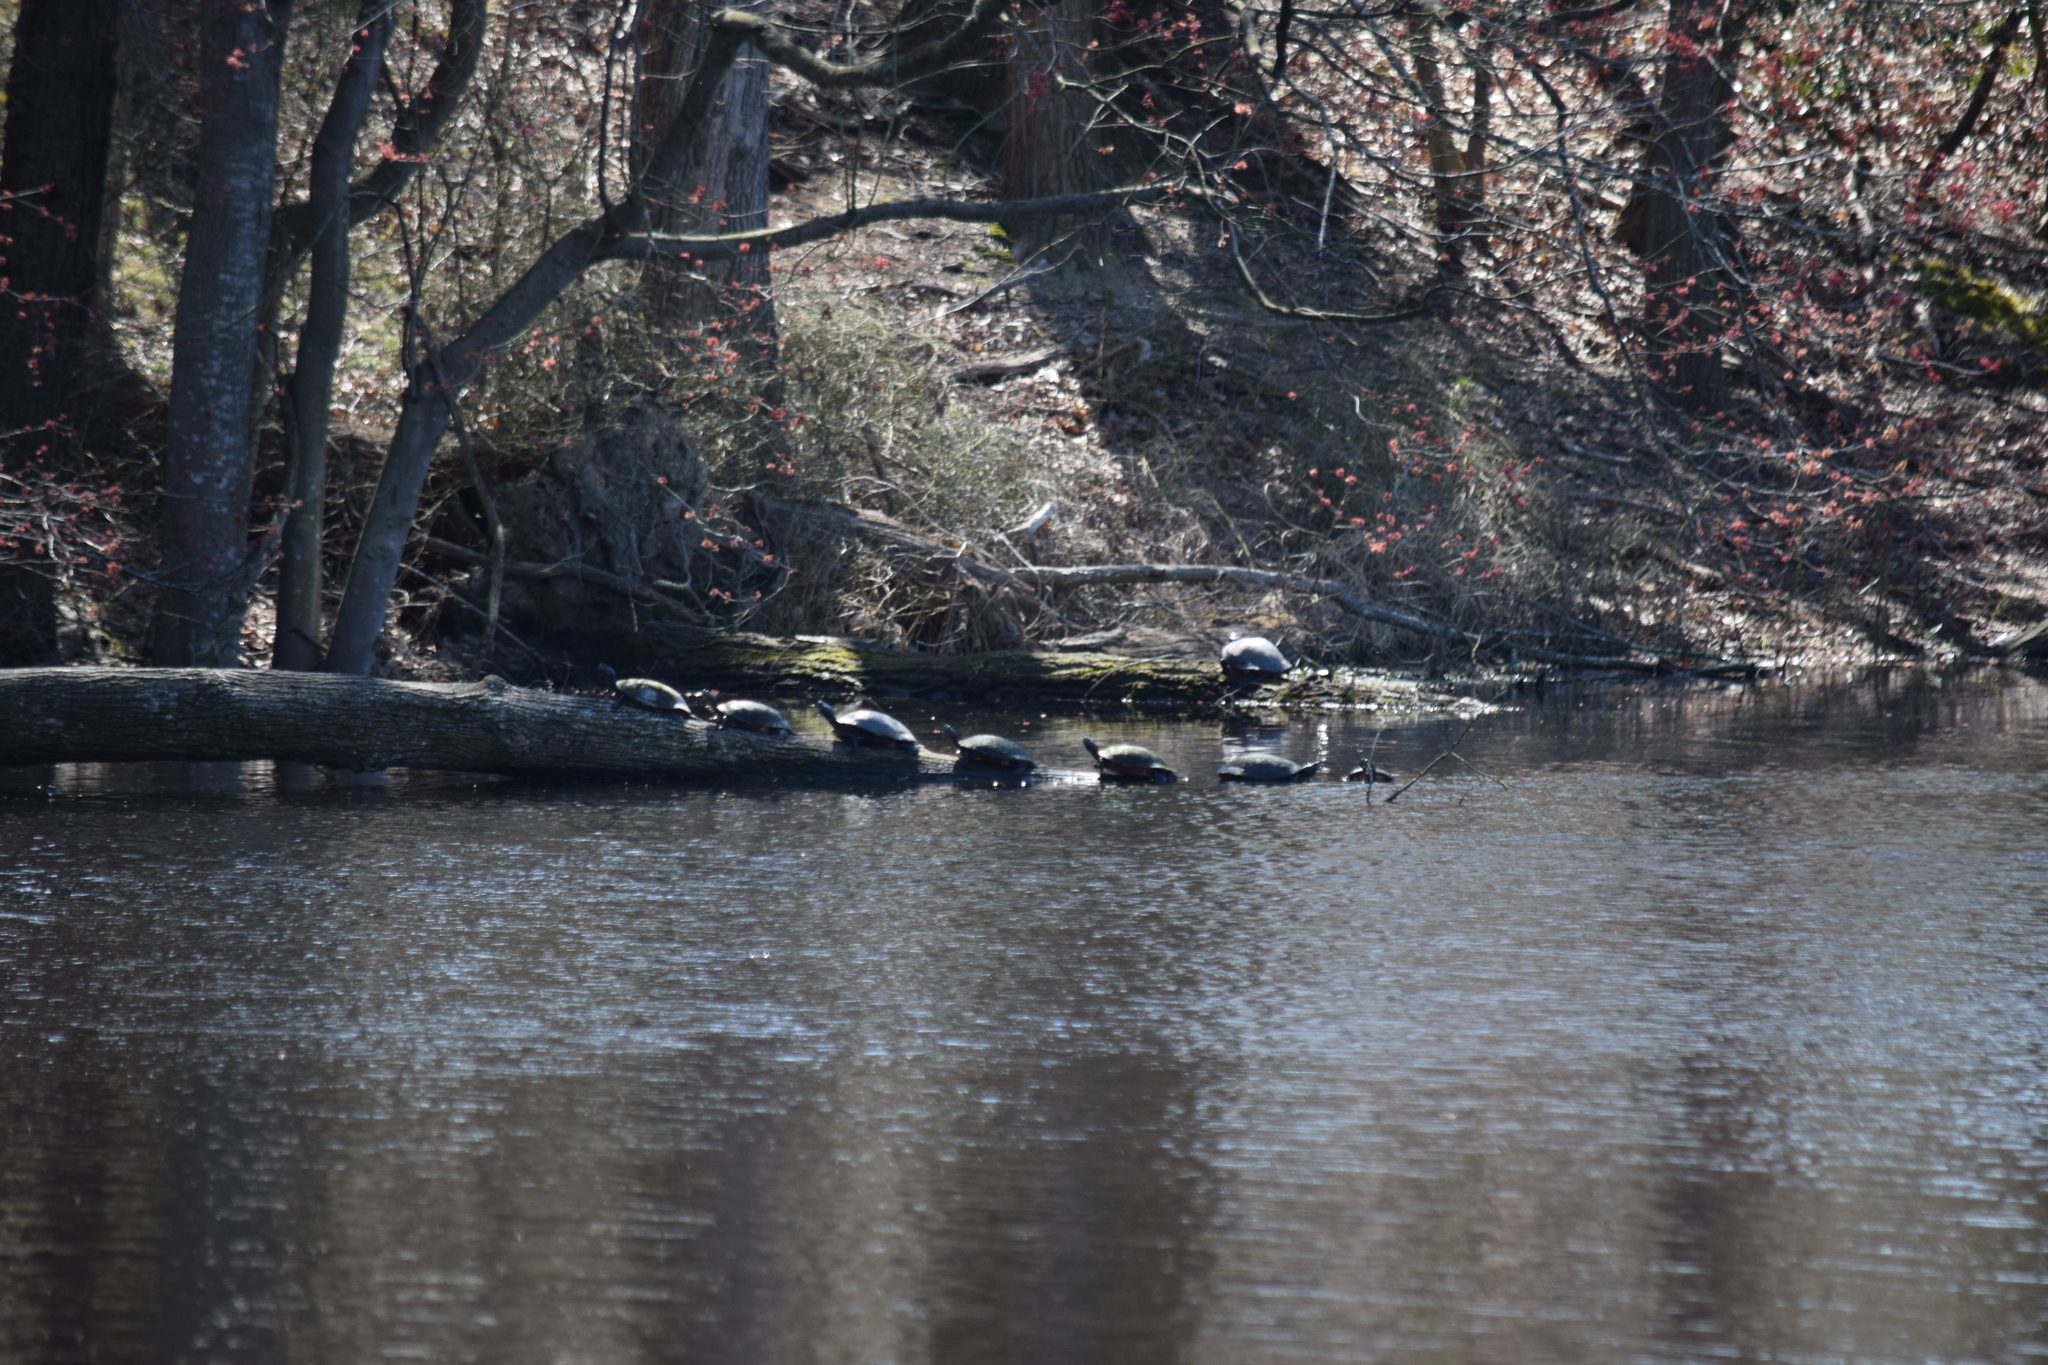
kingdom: Animalia
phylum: Chordata
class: Testudines
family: Emydidae
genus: Pseudemys
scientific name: Pseudemys rubriventris
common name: American red-bellied turtle
